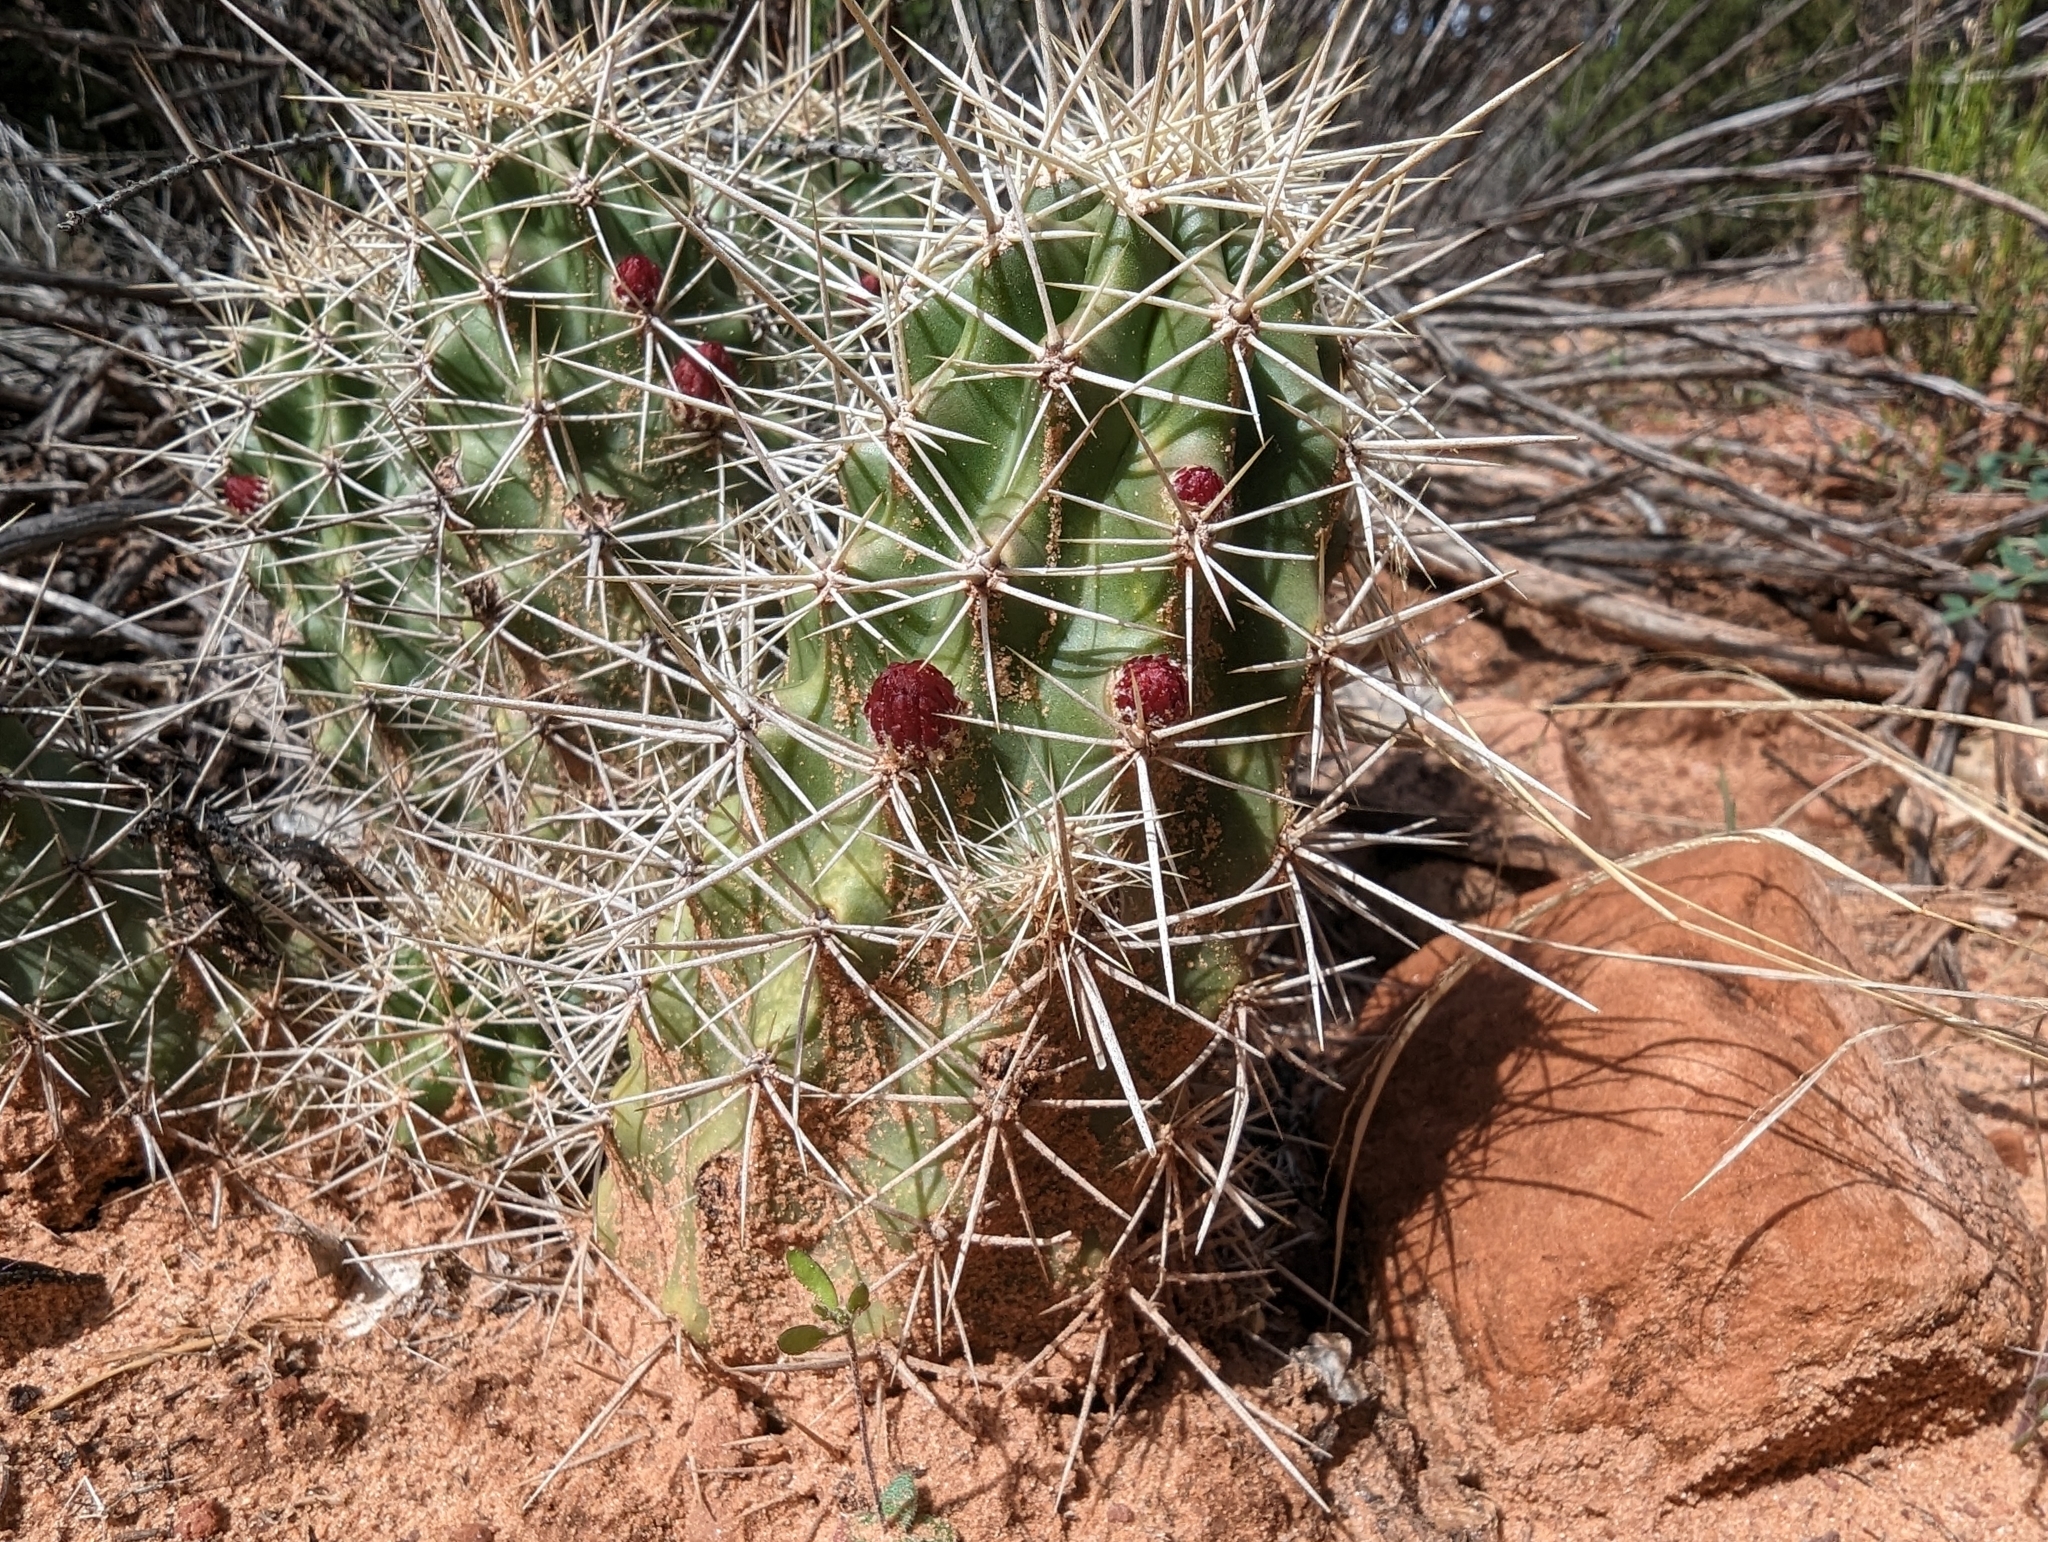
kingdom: Plantae
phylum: Tracheophyta
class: Magnoliopsida
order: Caryophyllales
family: Cactaceae
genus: Echinocereus
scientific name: Echinocereus triglochidiatus
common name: Claretcup hedgehog
